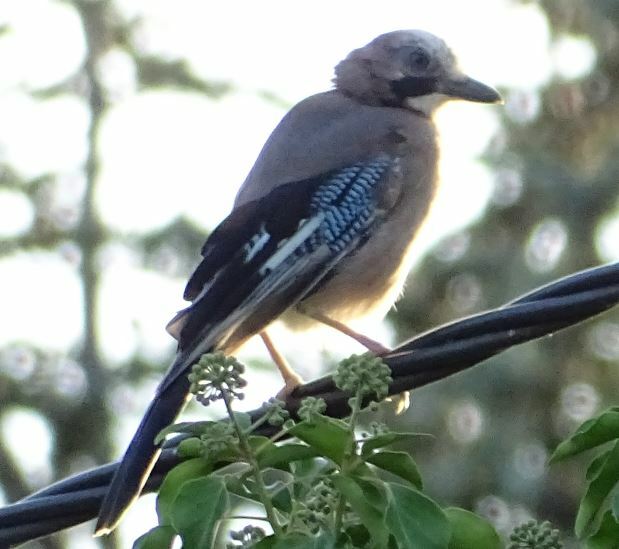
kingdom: Animalia
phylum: Chordata
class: Aves
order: Passeriformes
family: Corvidae
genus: Garrulus
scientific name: Garrulus glandarius
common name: Eurasian jay
